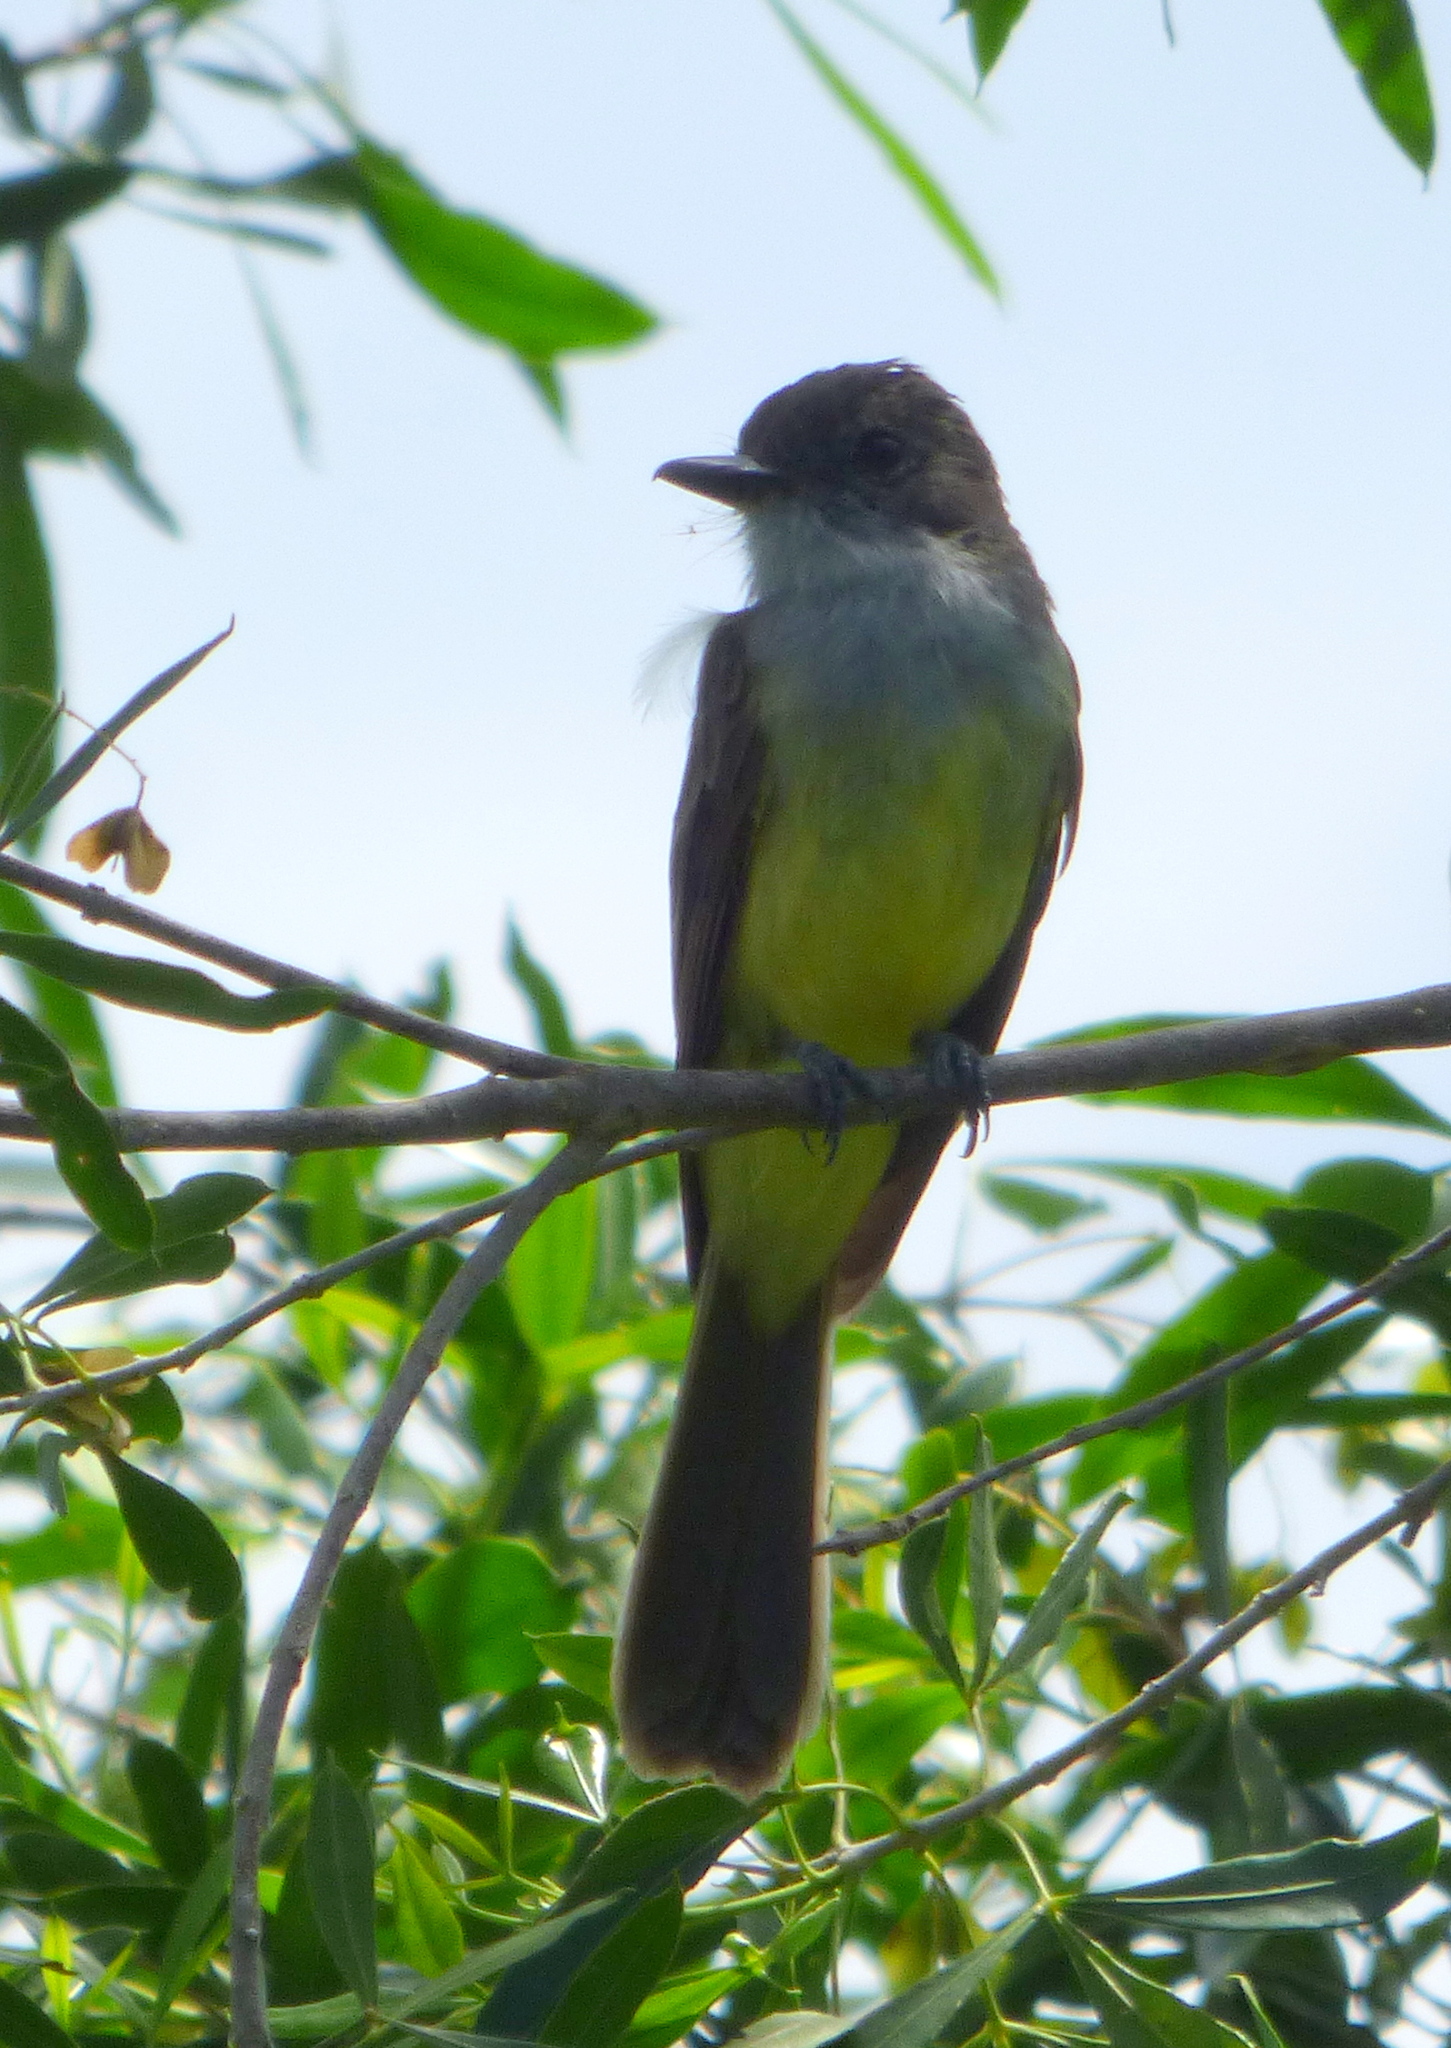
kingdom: Animalia
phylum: Chordata
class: Aves
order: Passeriformes
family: Tyrannidae
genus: Myiarchus
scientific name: Myiarchus ferox
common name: Short-crested flycatcher
